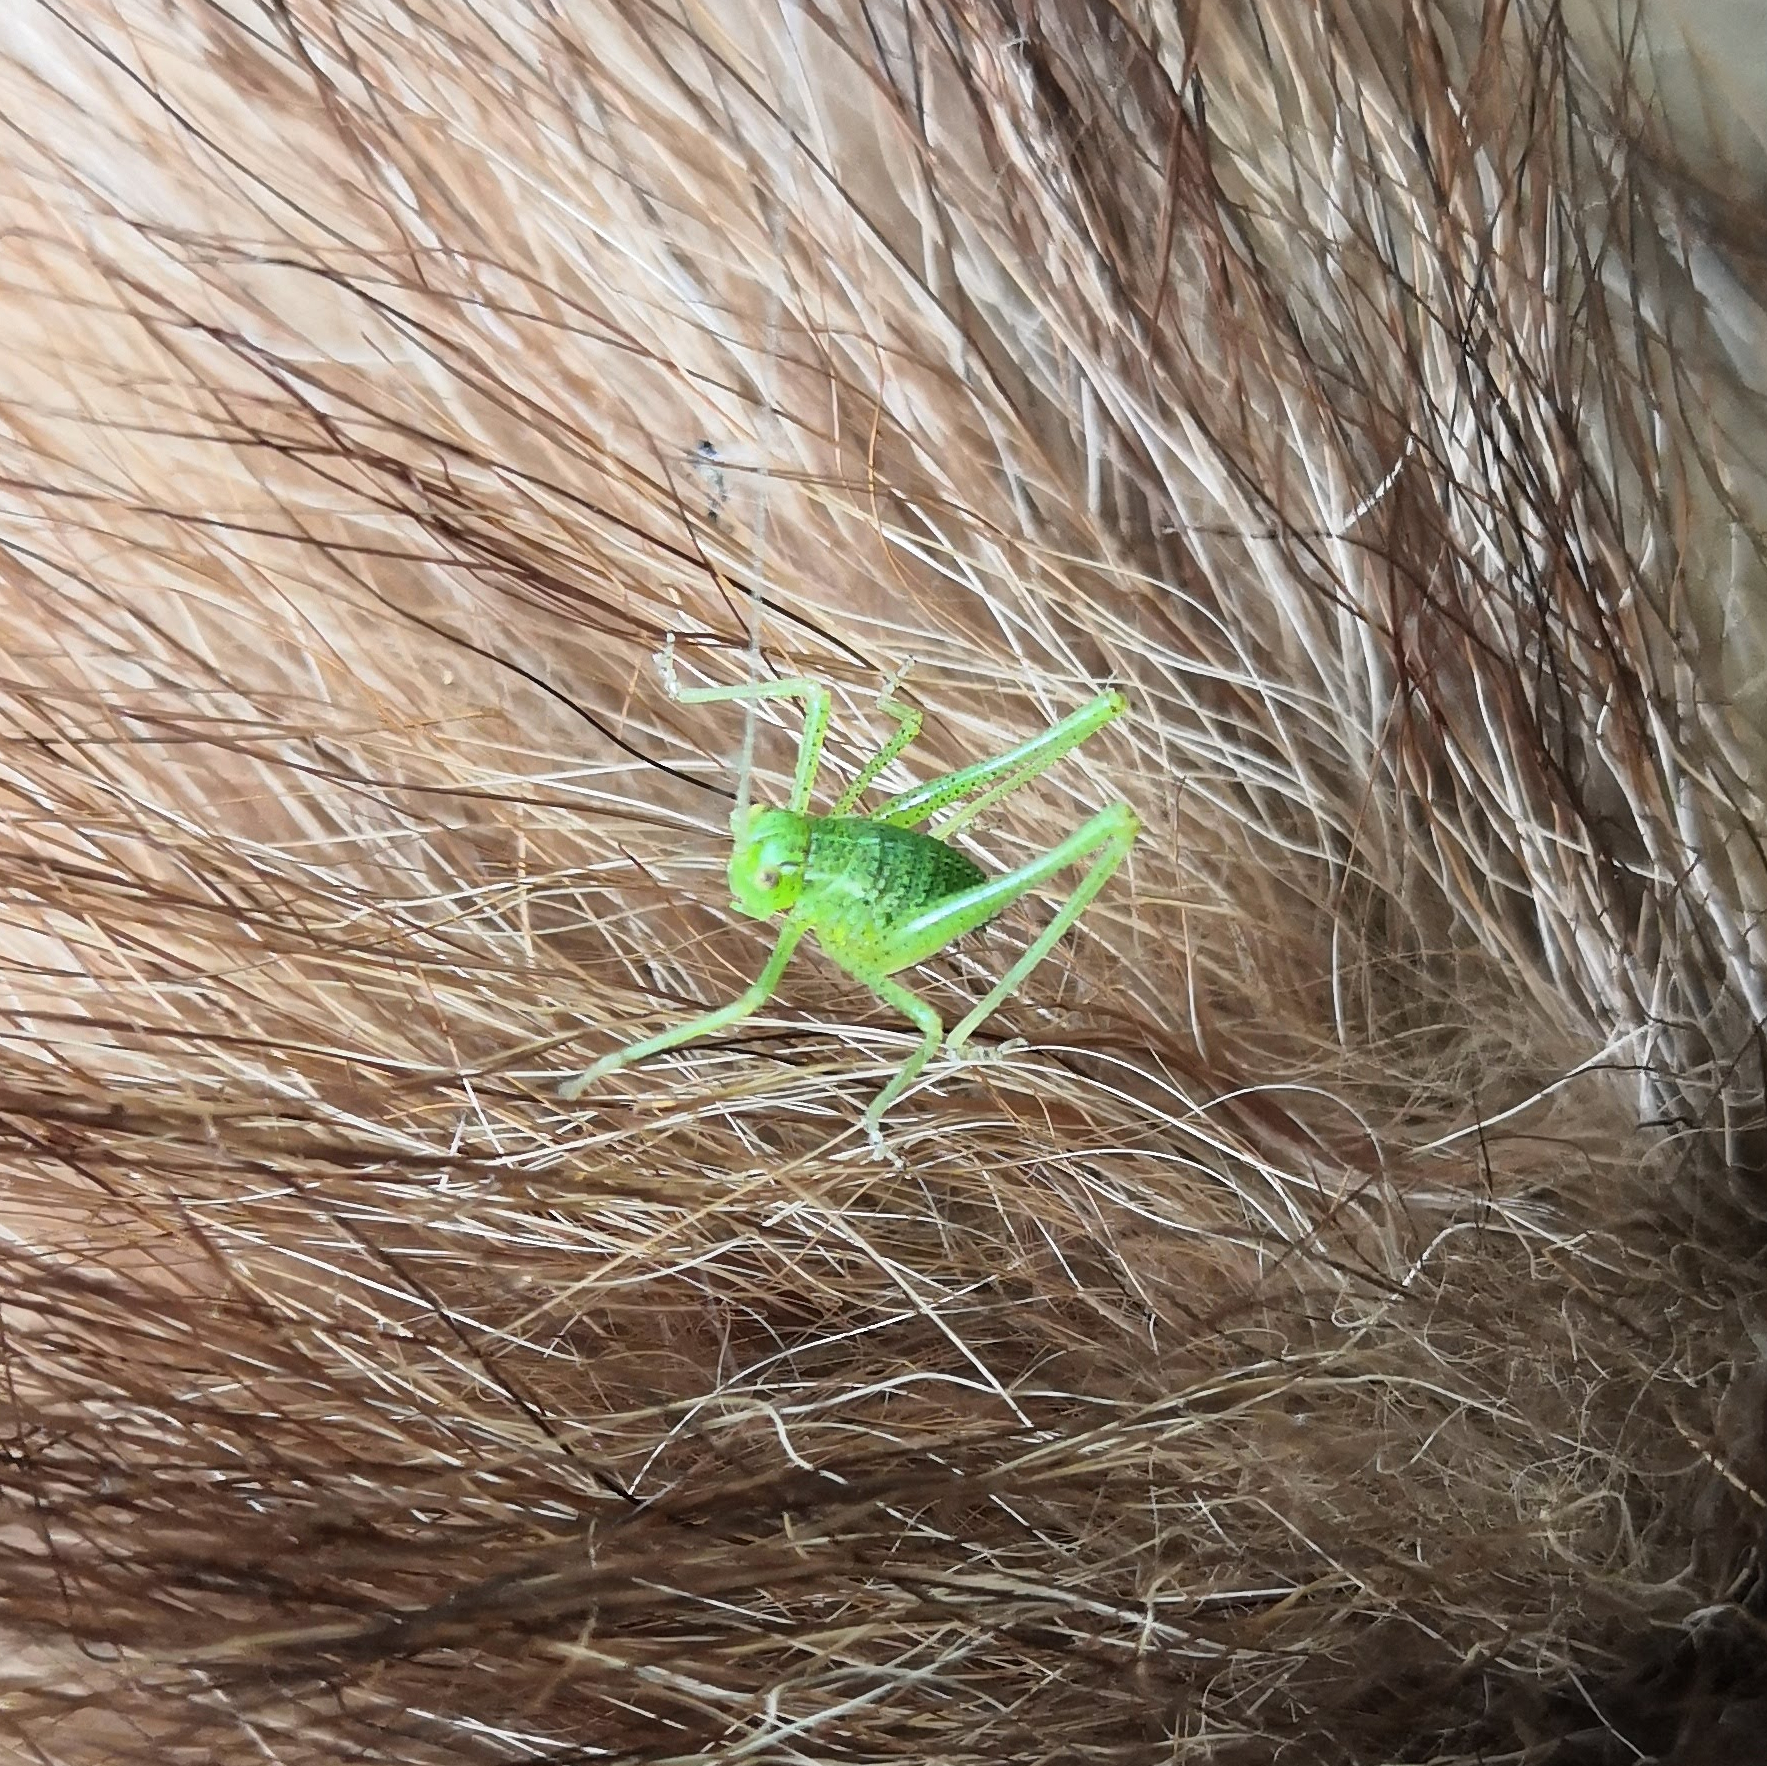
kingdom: Animalia
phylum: Arthropoda
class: Insecta
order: Orthoptera
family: Tettigoniidae
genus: Leptophyes
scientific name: Leptophyes punctatissima
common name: Speckled bush-cricket
